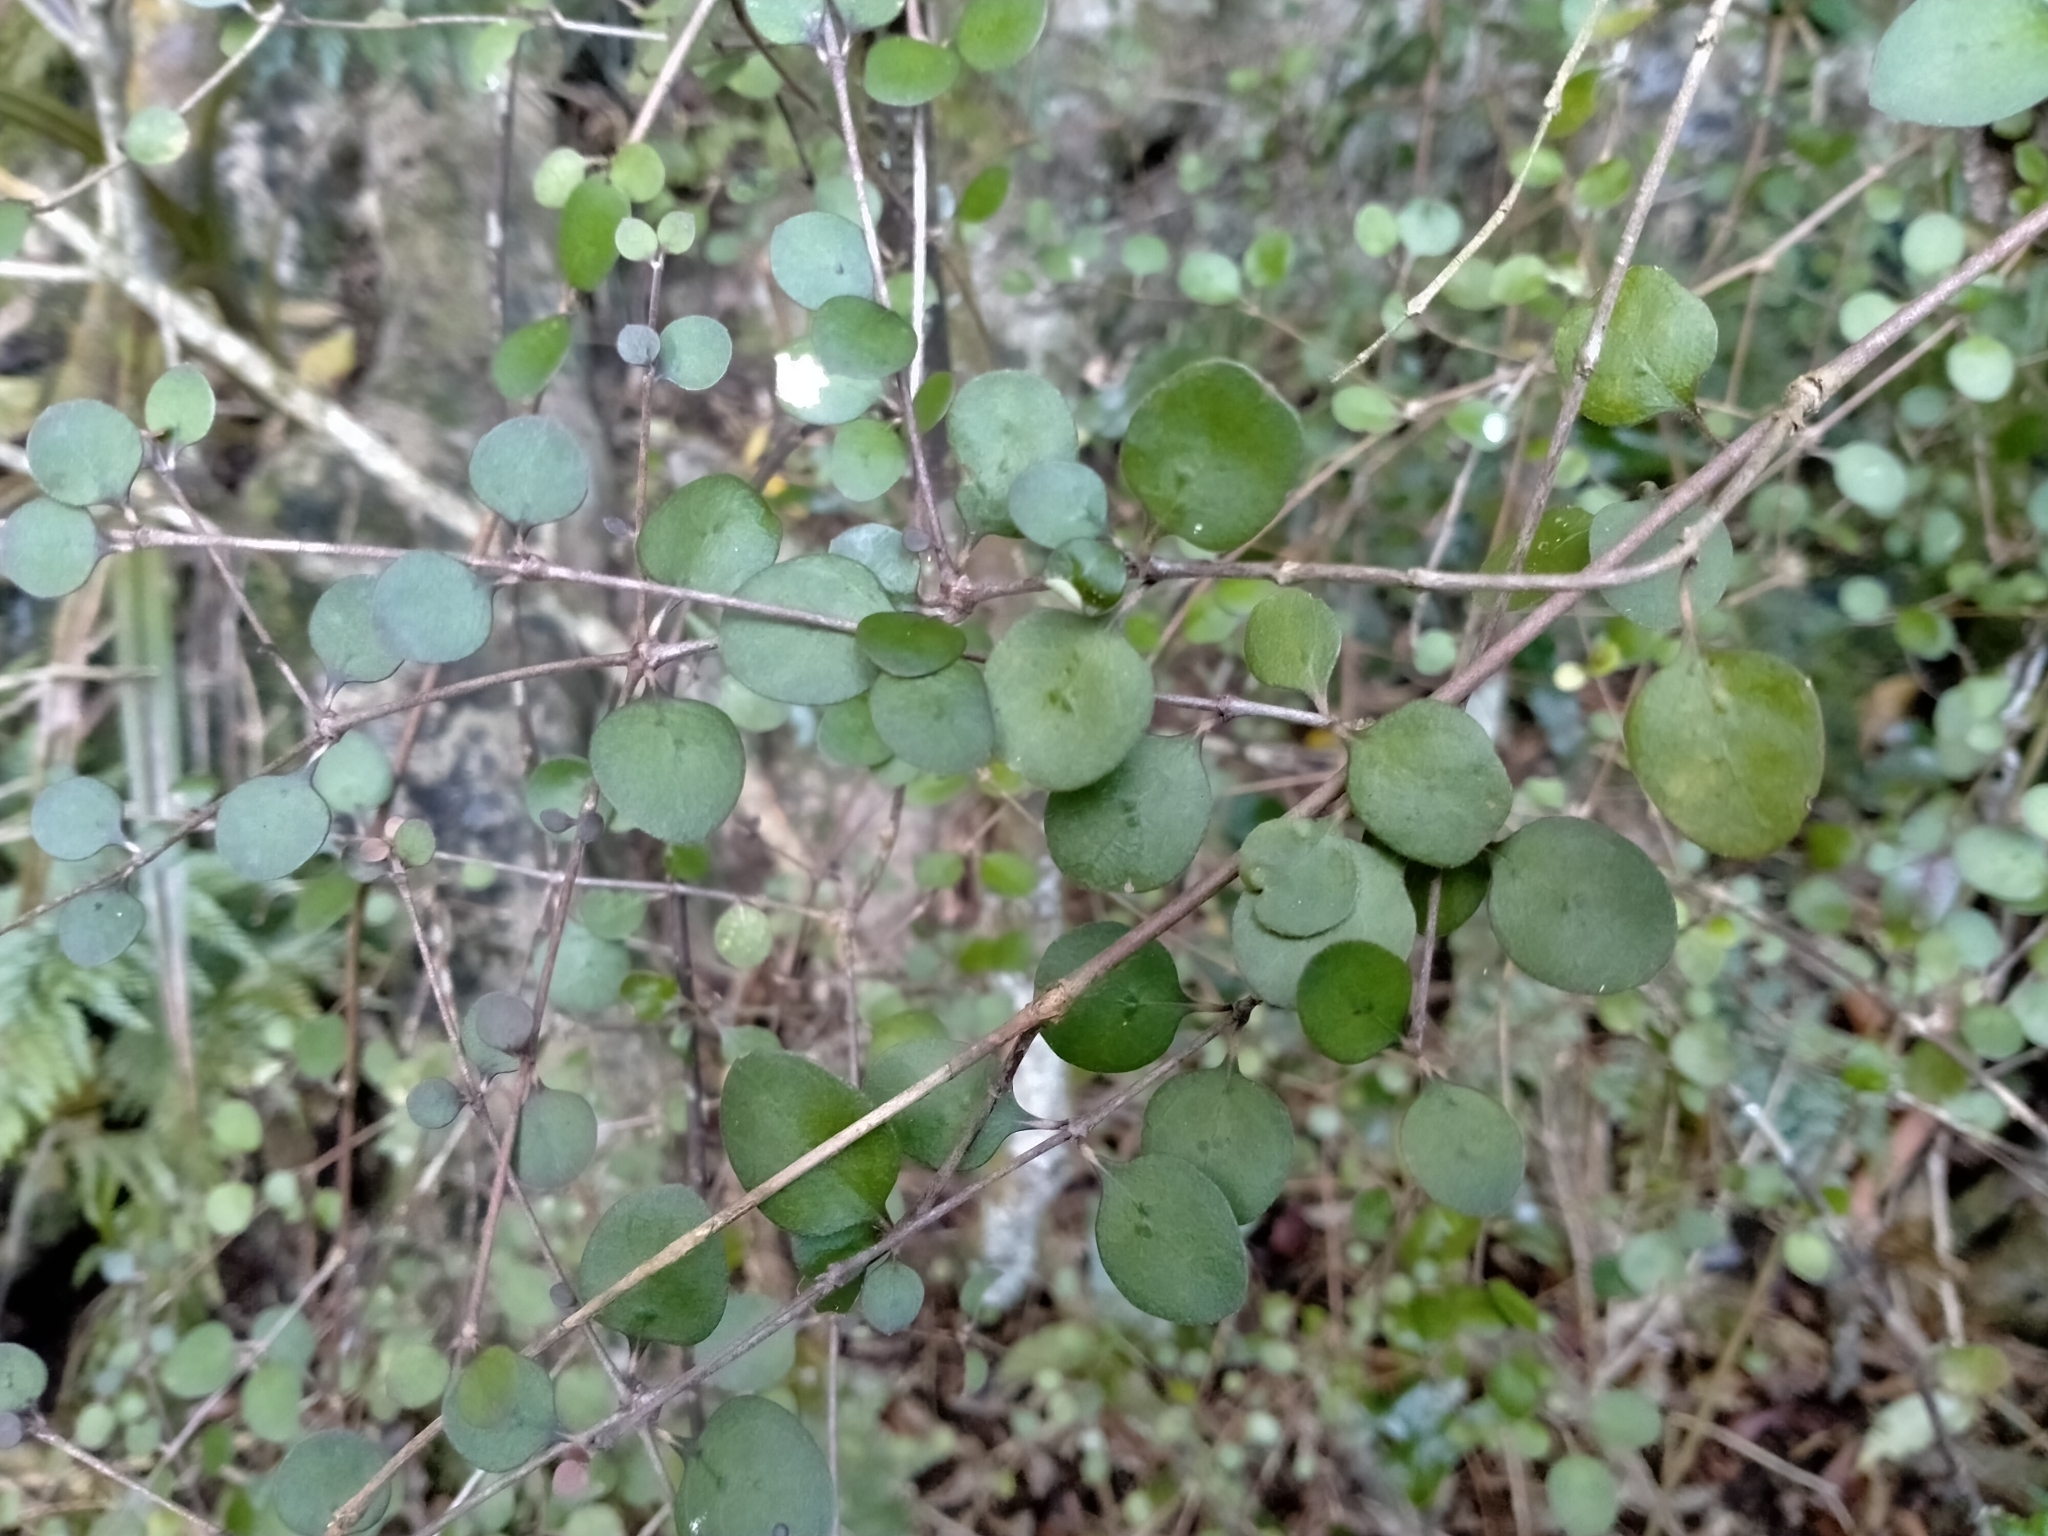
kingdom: Plantae
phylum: Tracheophyta
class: Magnoliopsida
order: Gentianales
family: Rubiaceae
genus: Coprosma
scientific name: Coprosma crassifolia
